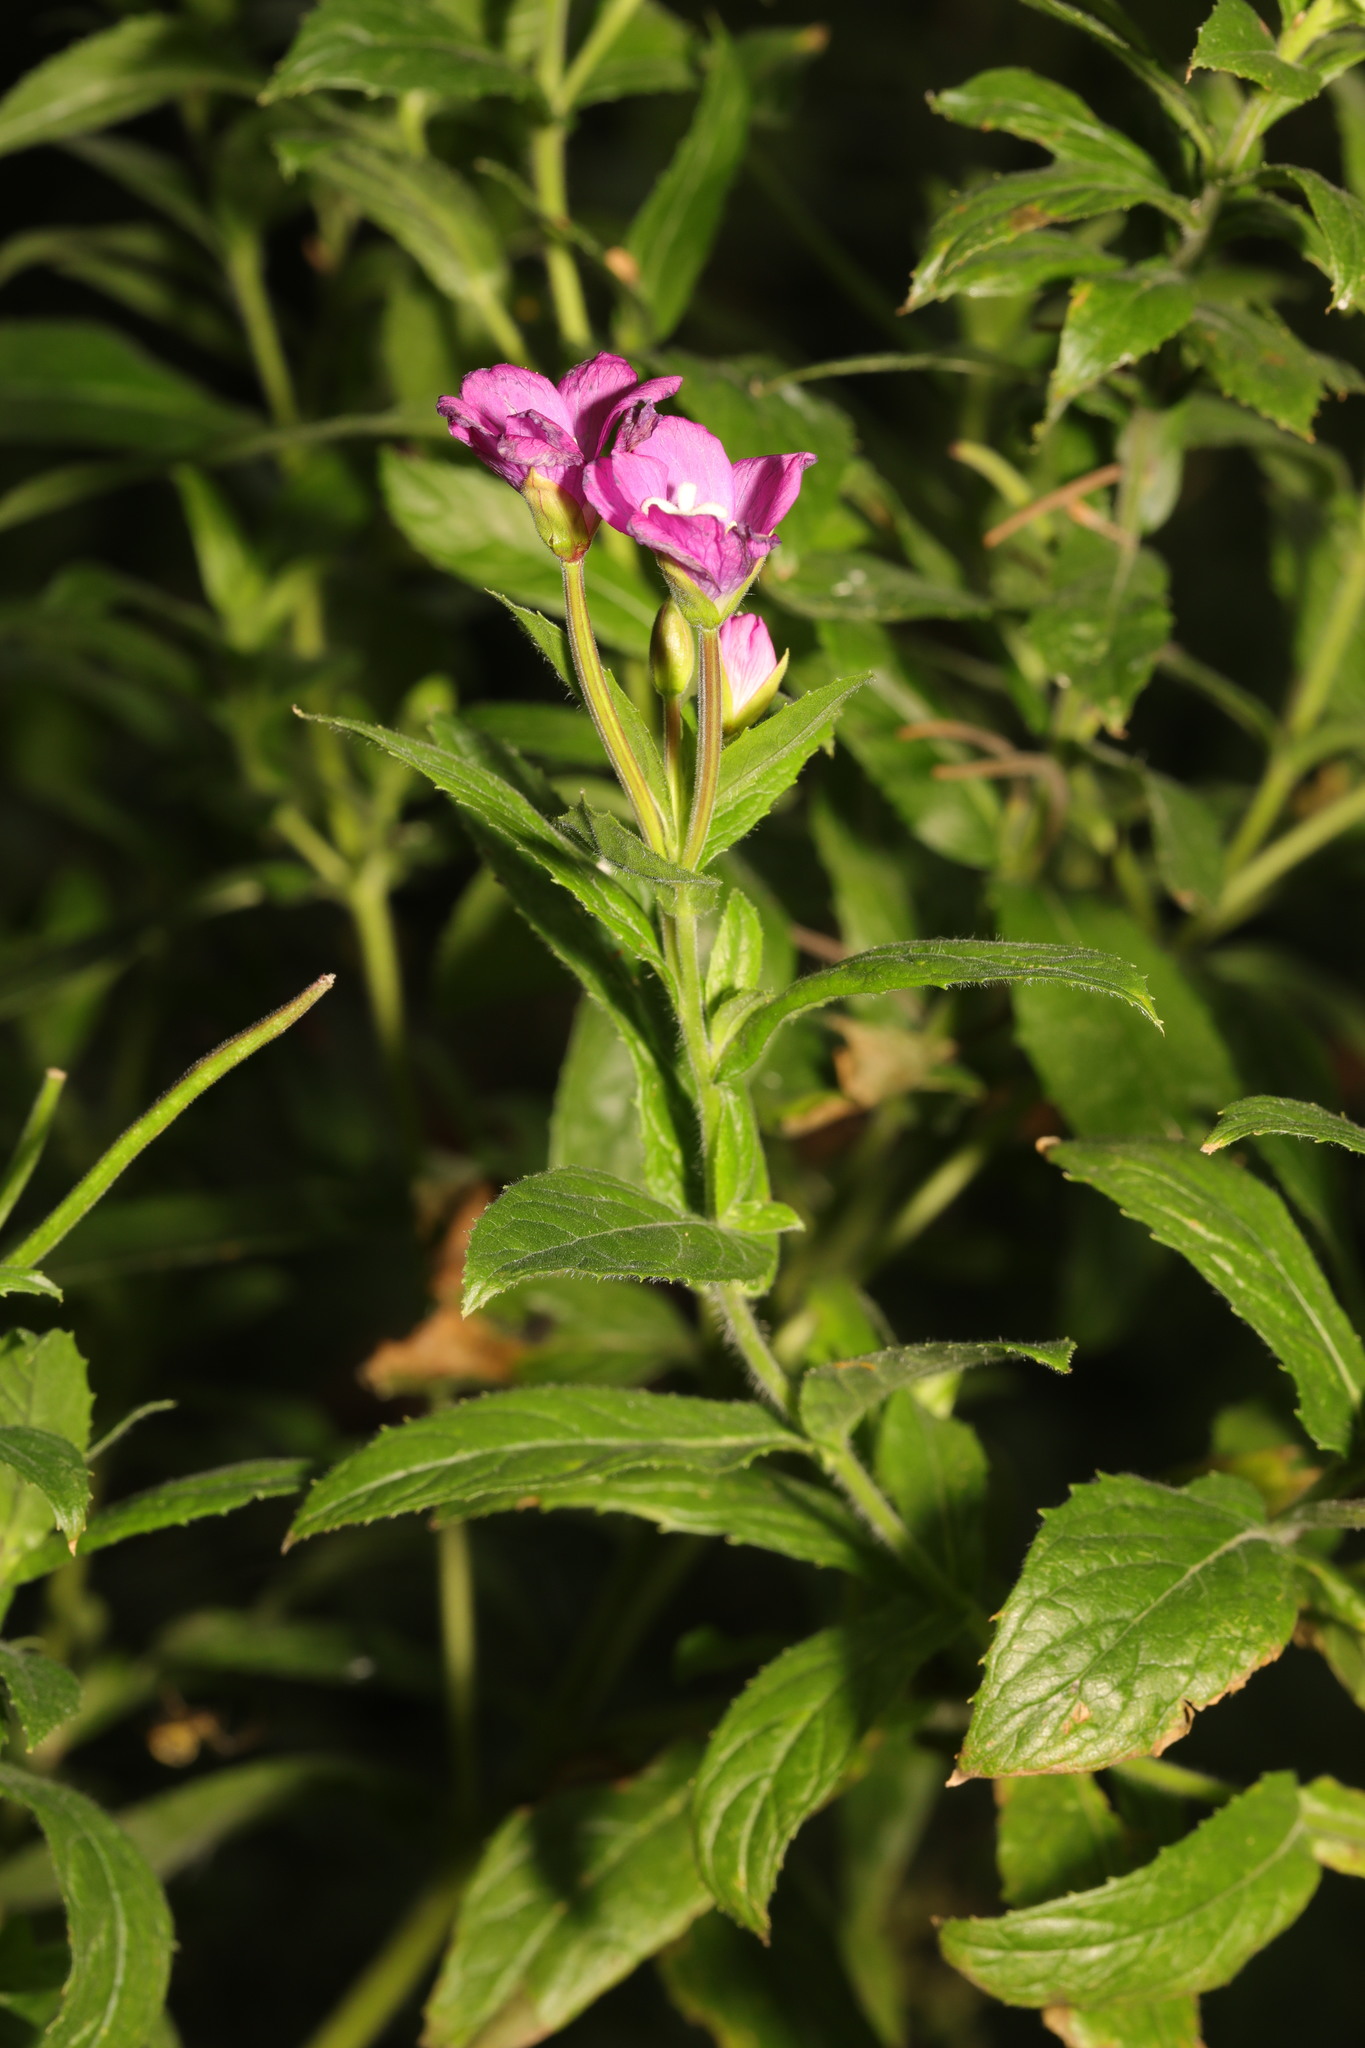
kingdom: Plantae
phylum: Tracheophyta
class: Magnoliopsida
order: Myrtales
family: Onagraceae
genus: Epilobium
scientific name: Epilobium hirsutum
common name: Great willowherb
